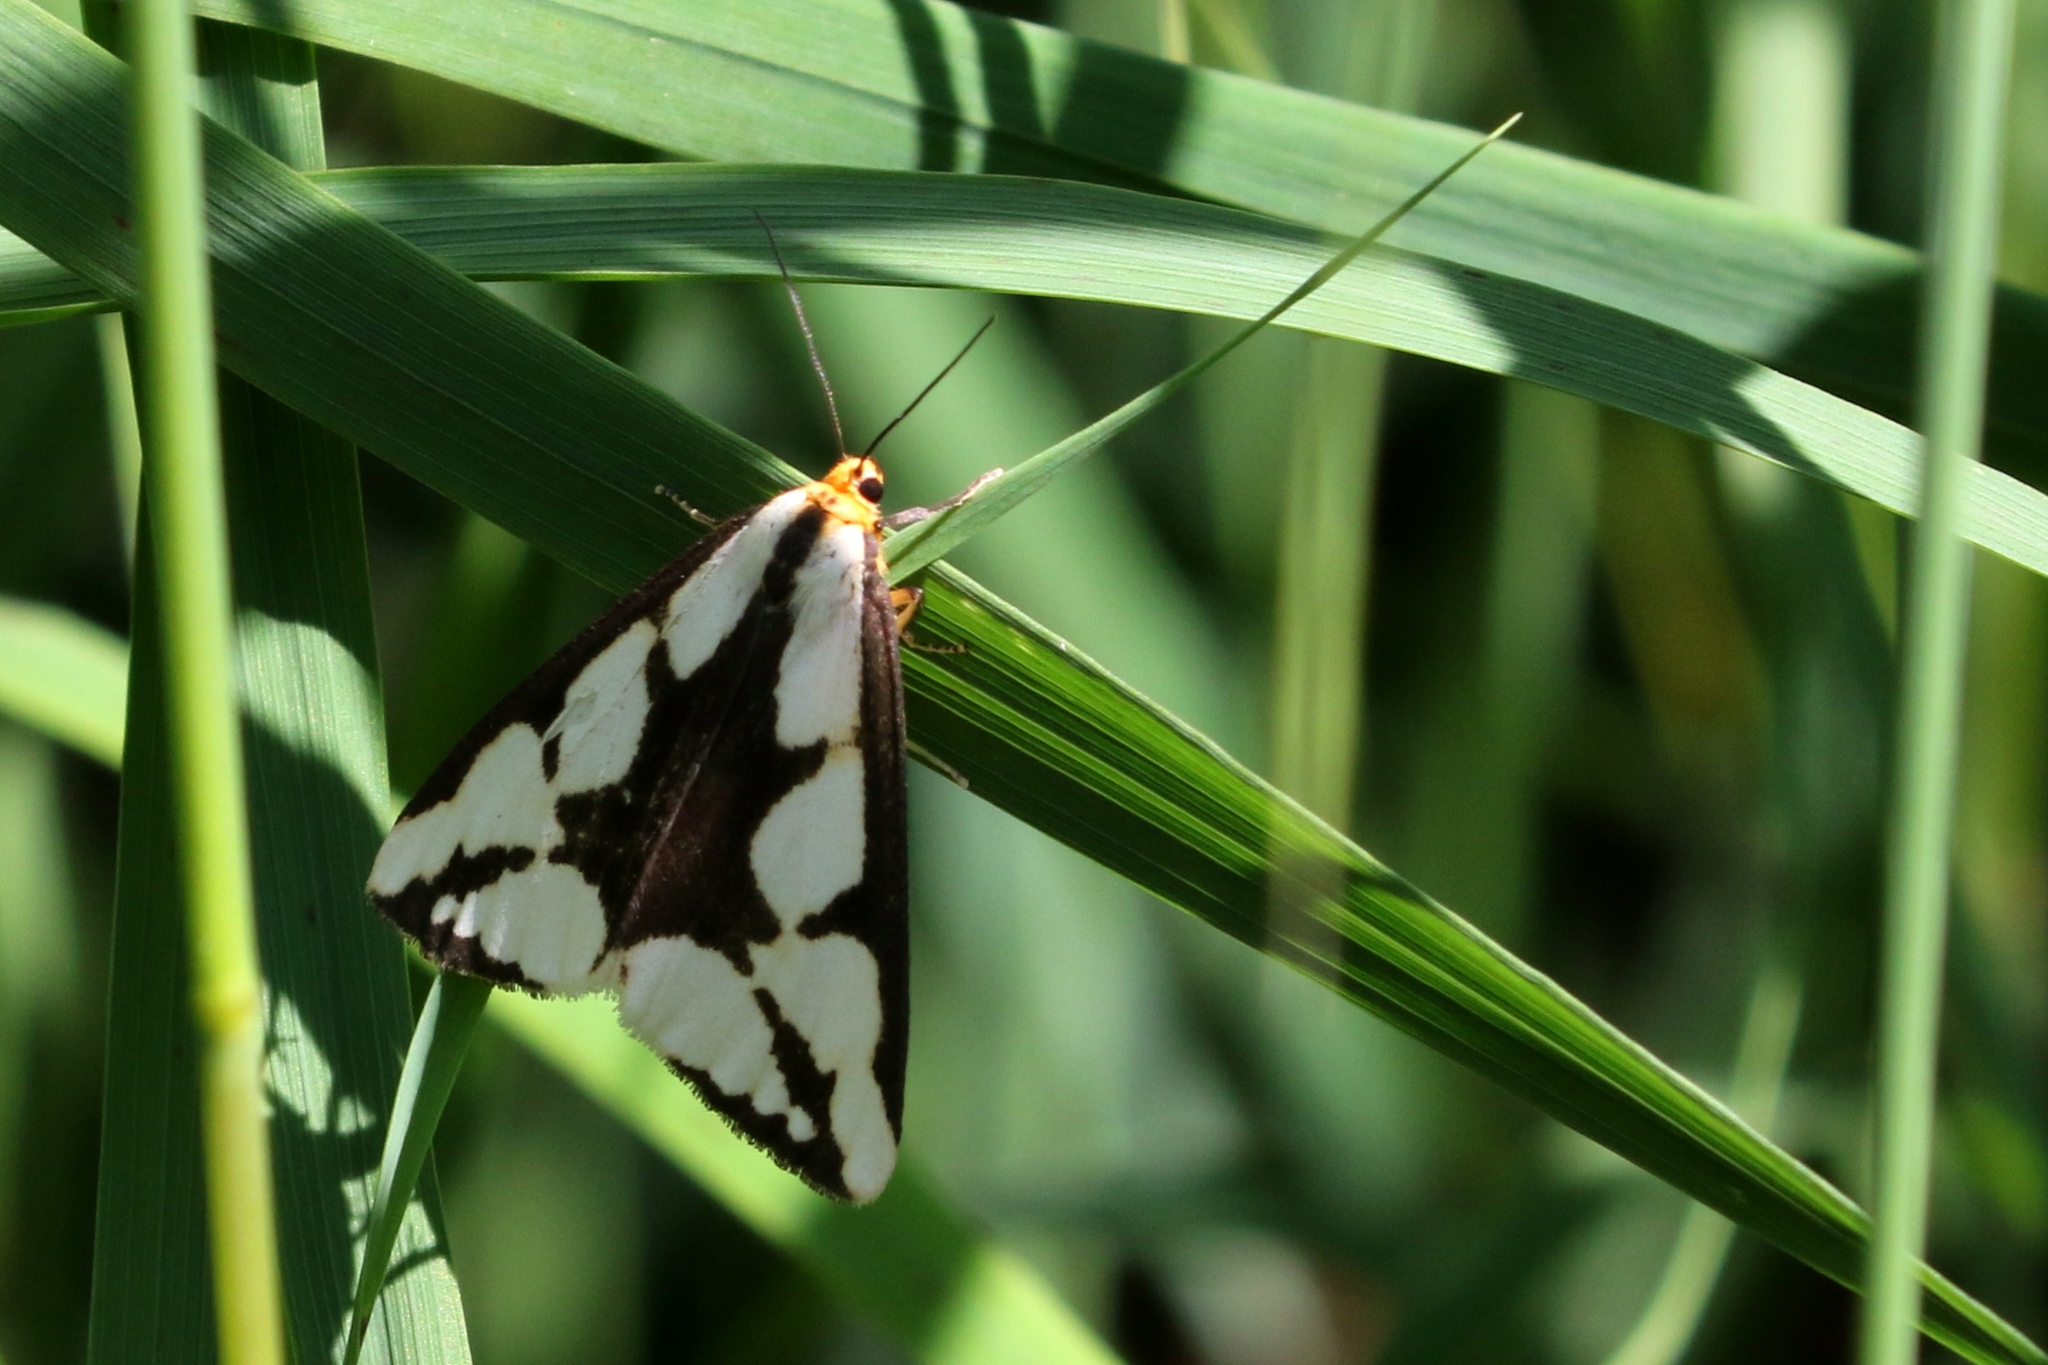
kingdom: Animalia
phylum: Arthropoda
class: Insecta
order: Lepidoptera
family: Erebidae
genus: Haploa
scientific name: Haploa lecontei
